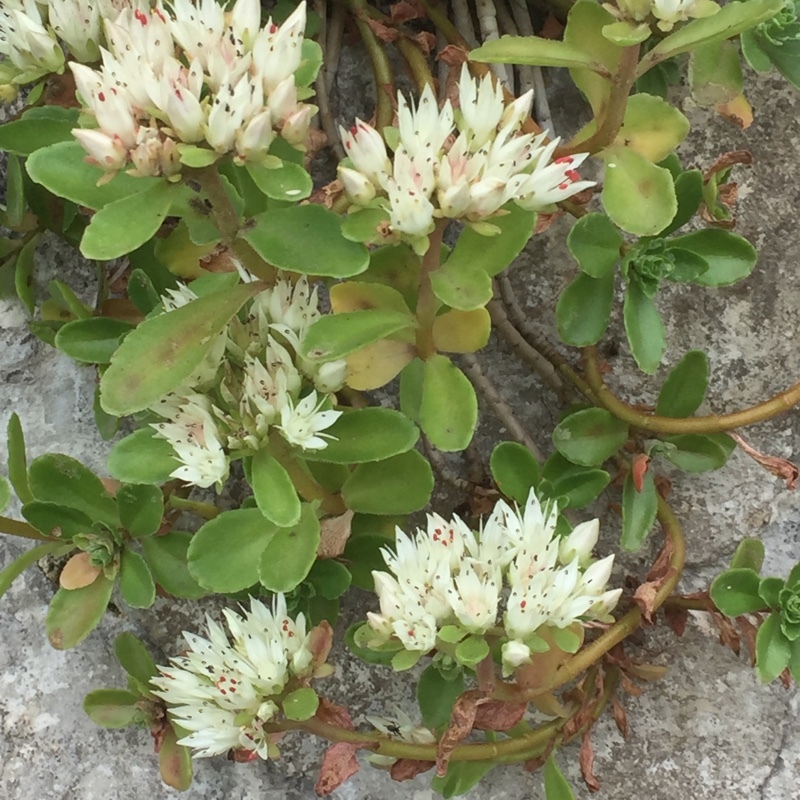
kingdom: Plantae
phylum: Tracheophyta
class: Magnoliopsida
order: Saxifragales
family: Crassulaceae
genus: Phedimus
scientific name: Phedimus spurius
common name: Caucasian stonecrop
